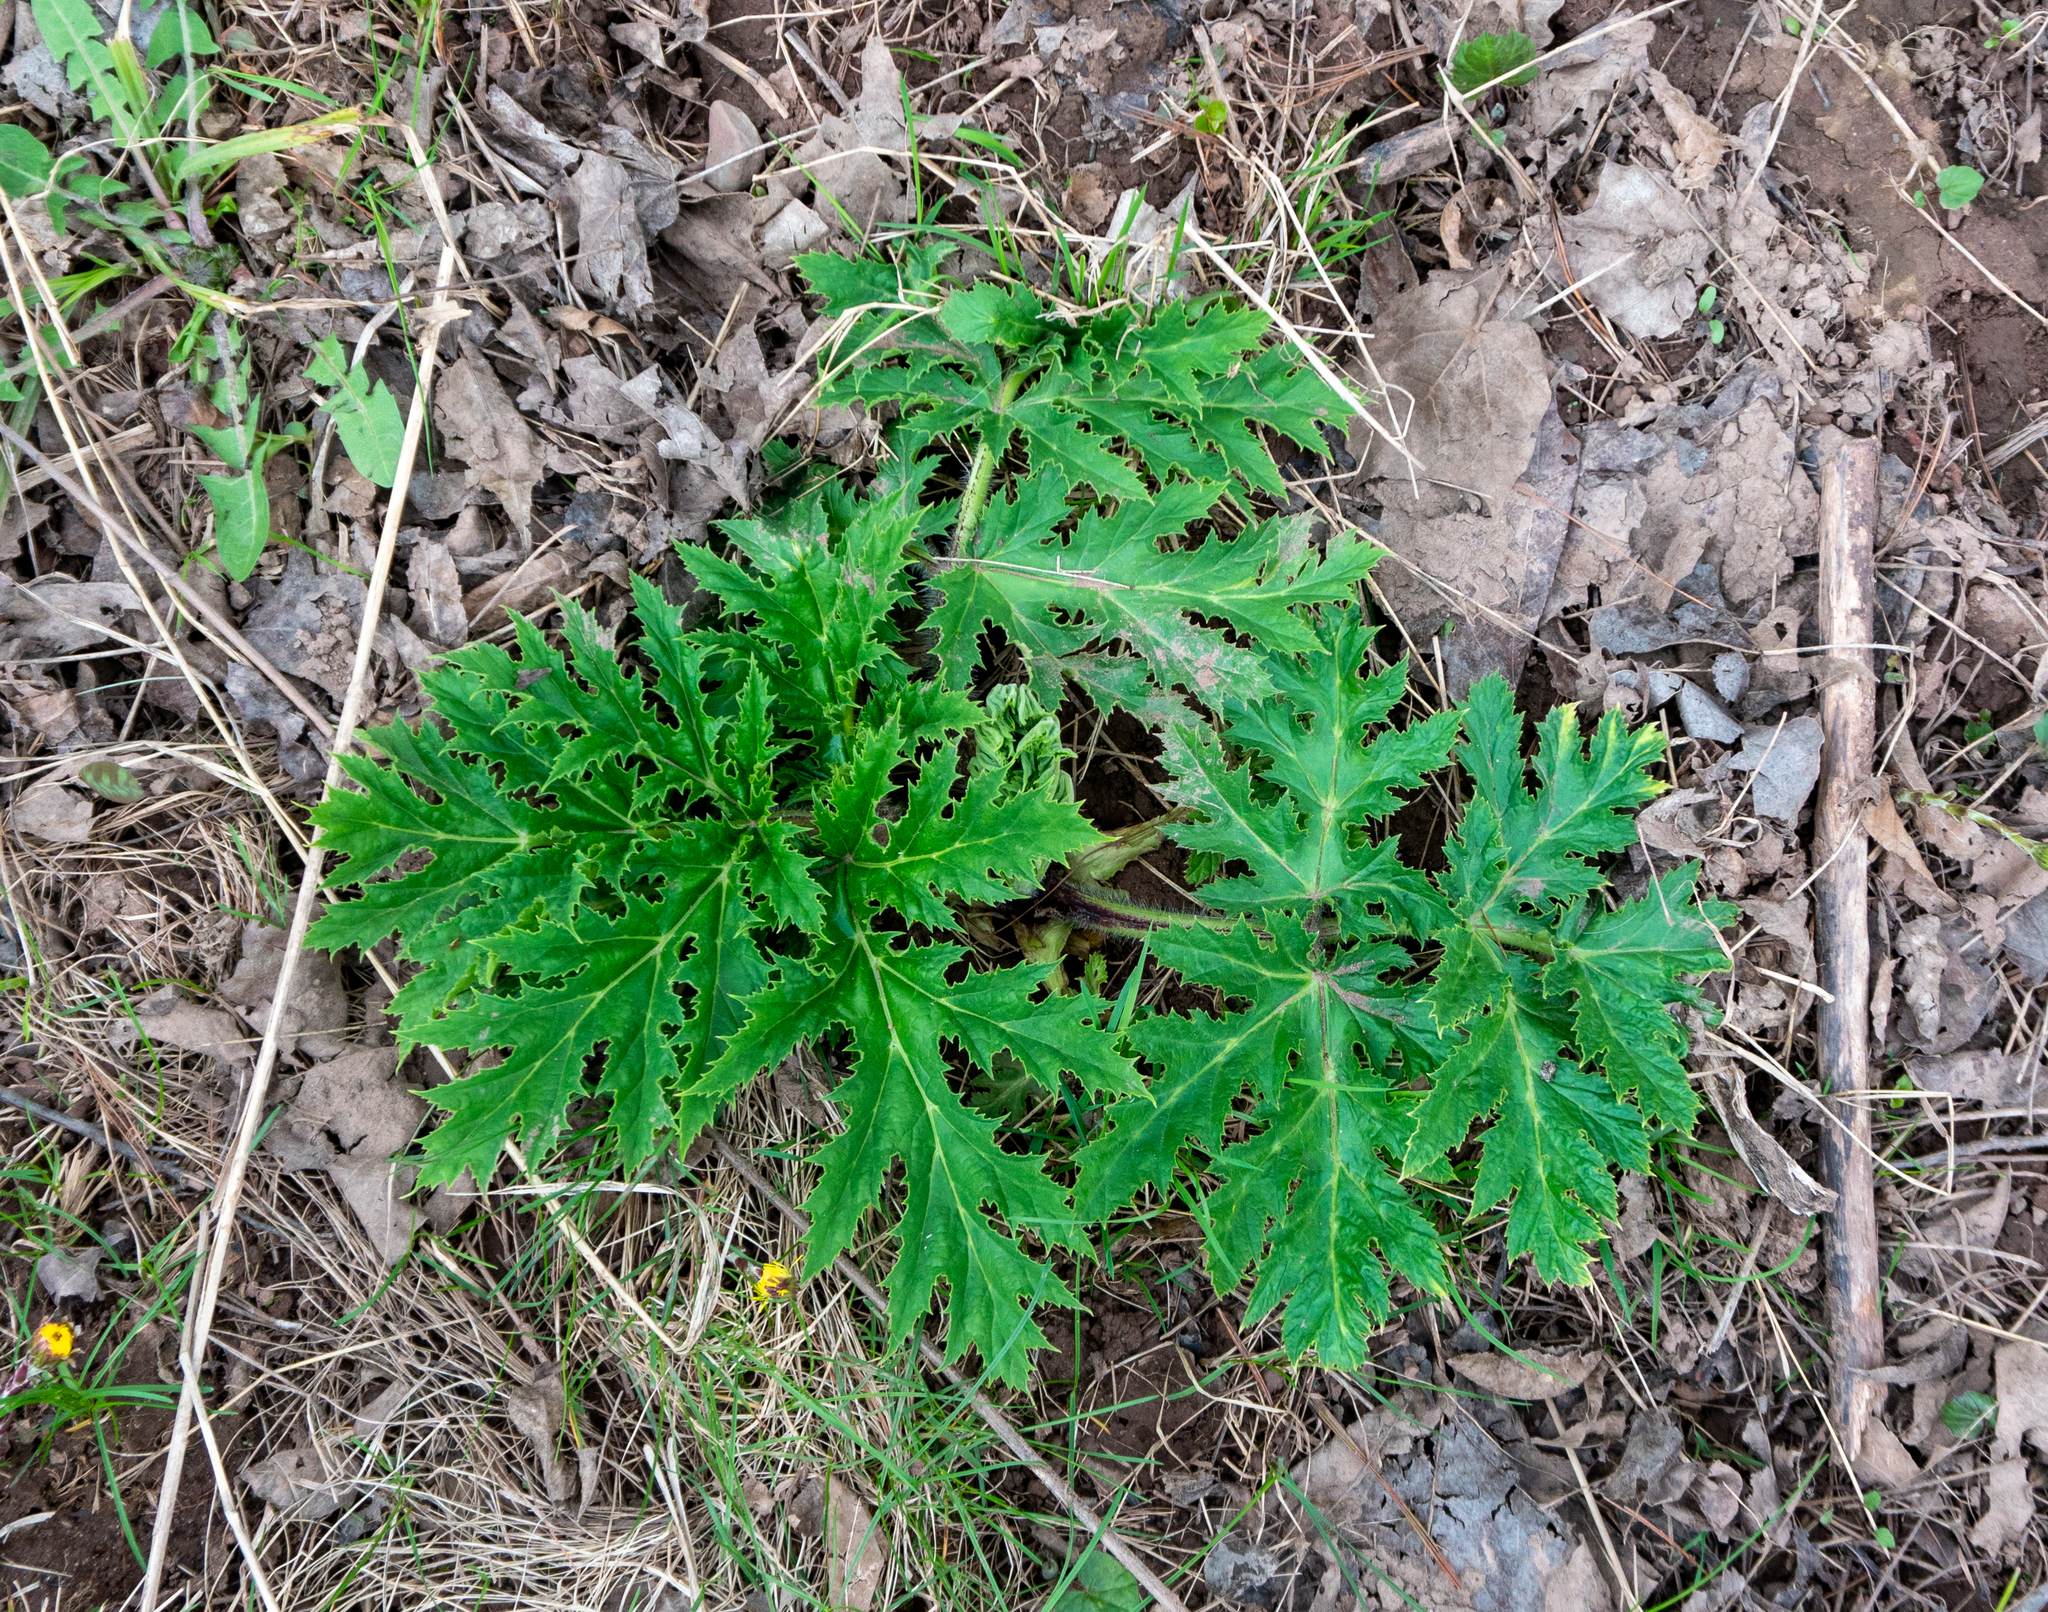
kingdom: Plantae
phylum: Tracheophyta
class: Magnoliopsida
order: Apiales
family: Apiaceae
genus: Heracleum
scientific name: Heracleum mantegazzianum
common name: Giant hogweed
